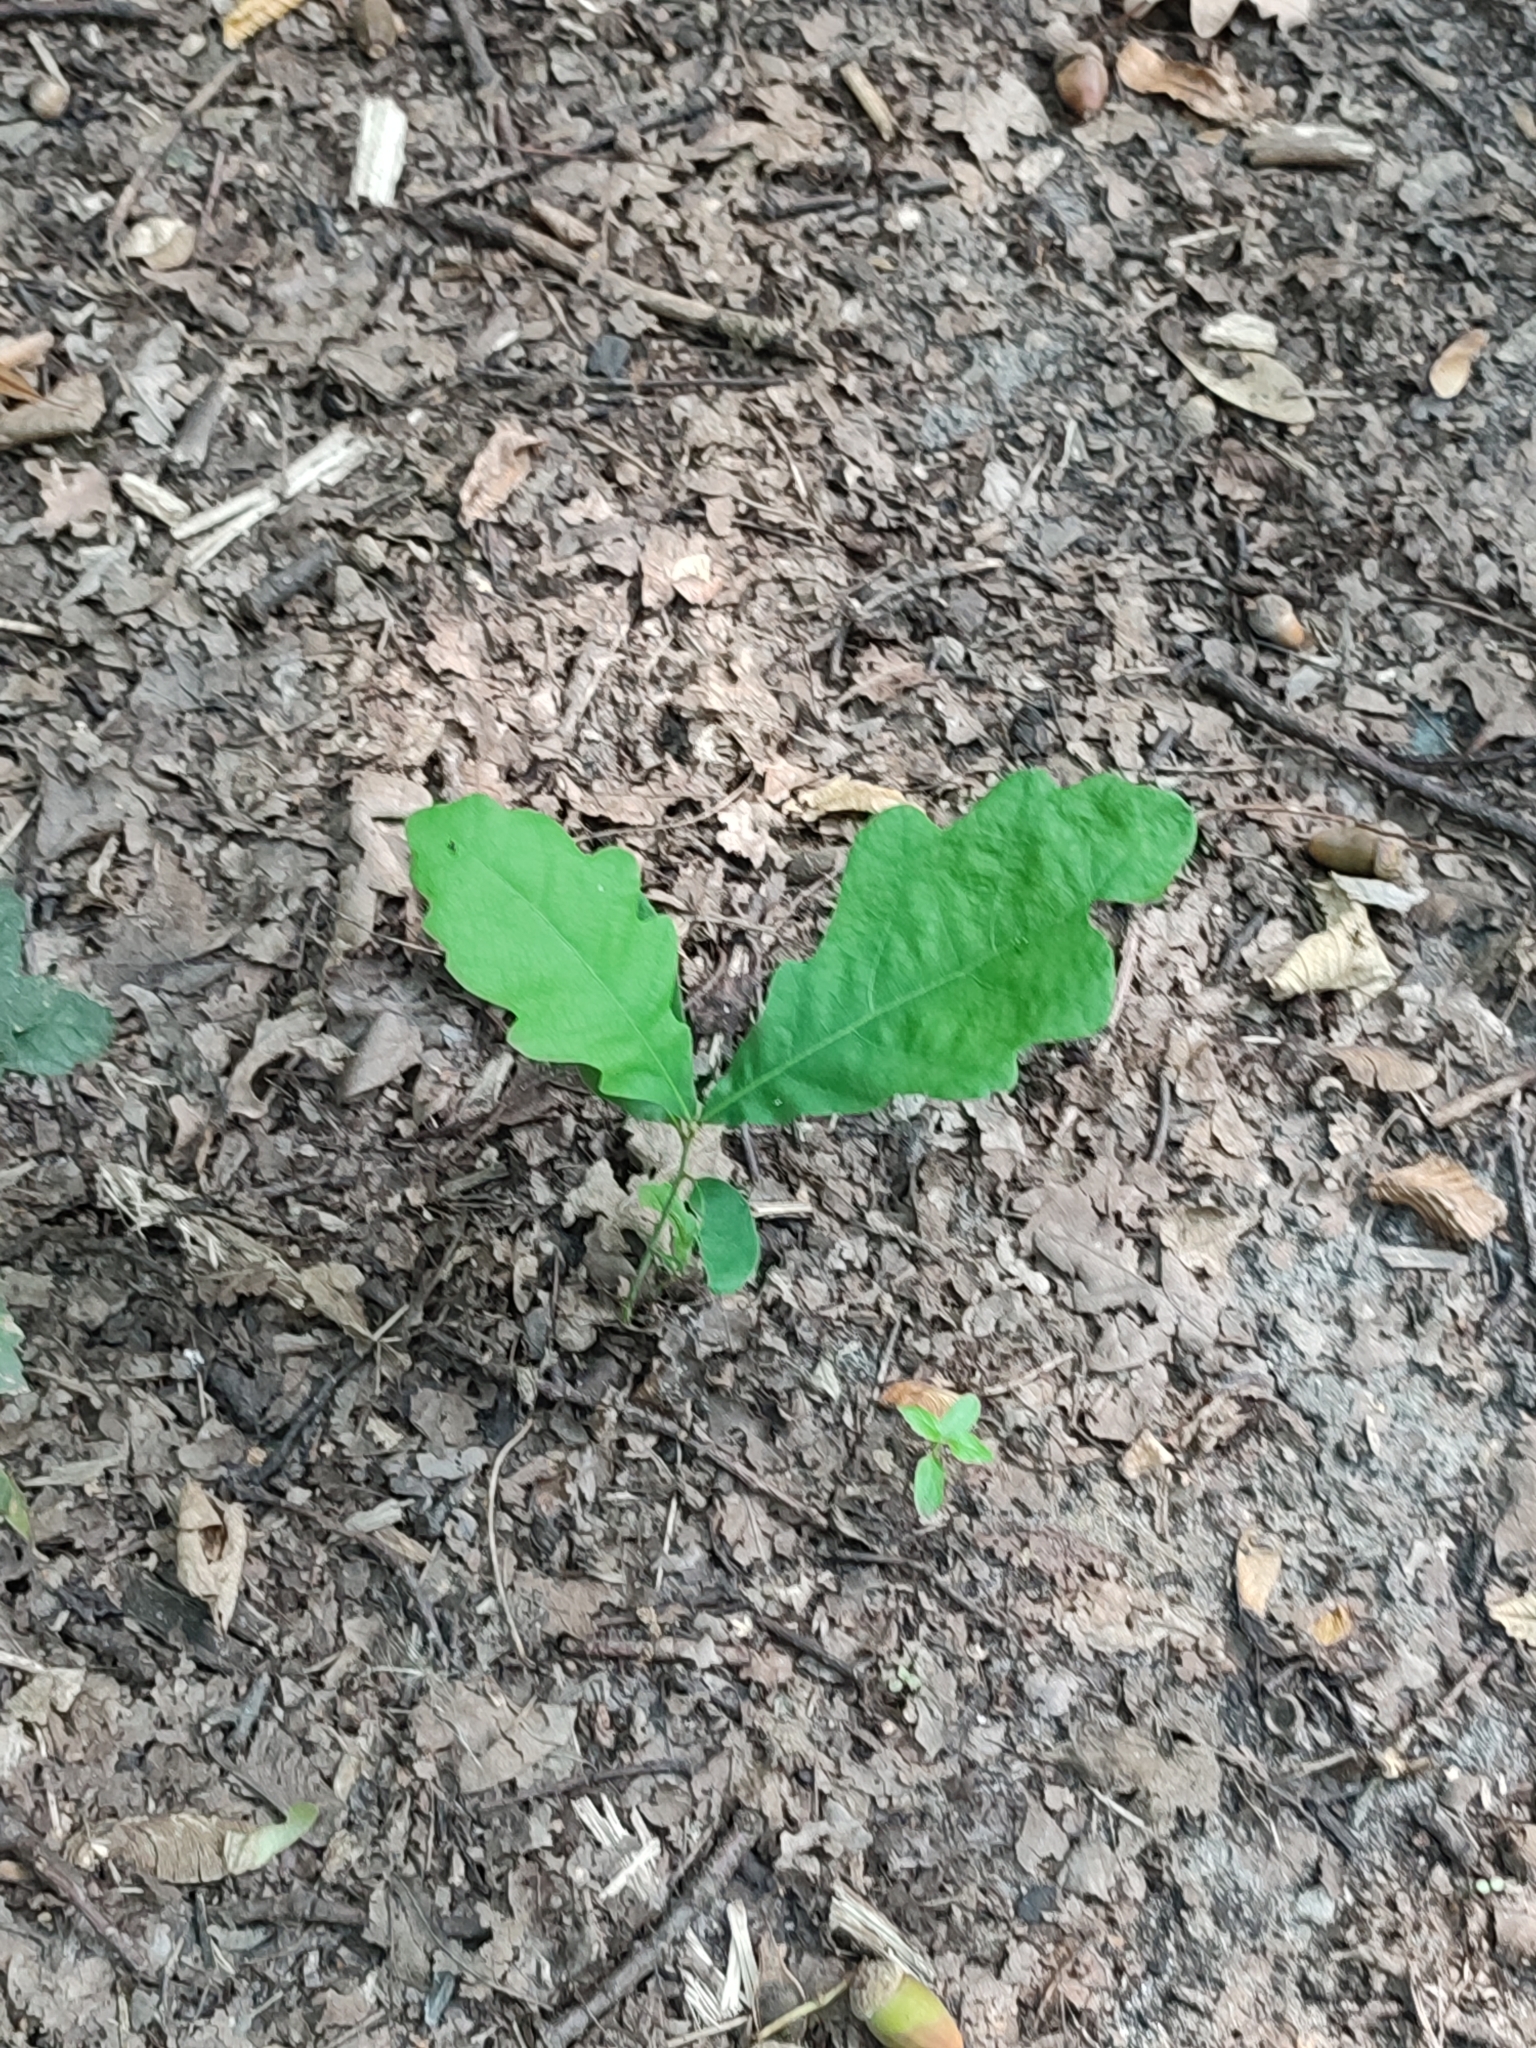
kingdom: Plantae
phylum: Tracheophyta
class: Magnoliopsida
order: Fagales
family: Fagaceae
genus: Quercus
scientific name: Quercus robur
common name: Pedunculate oak
